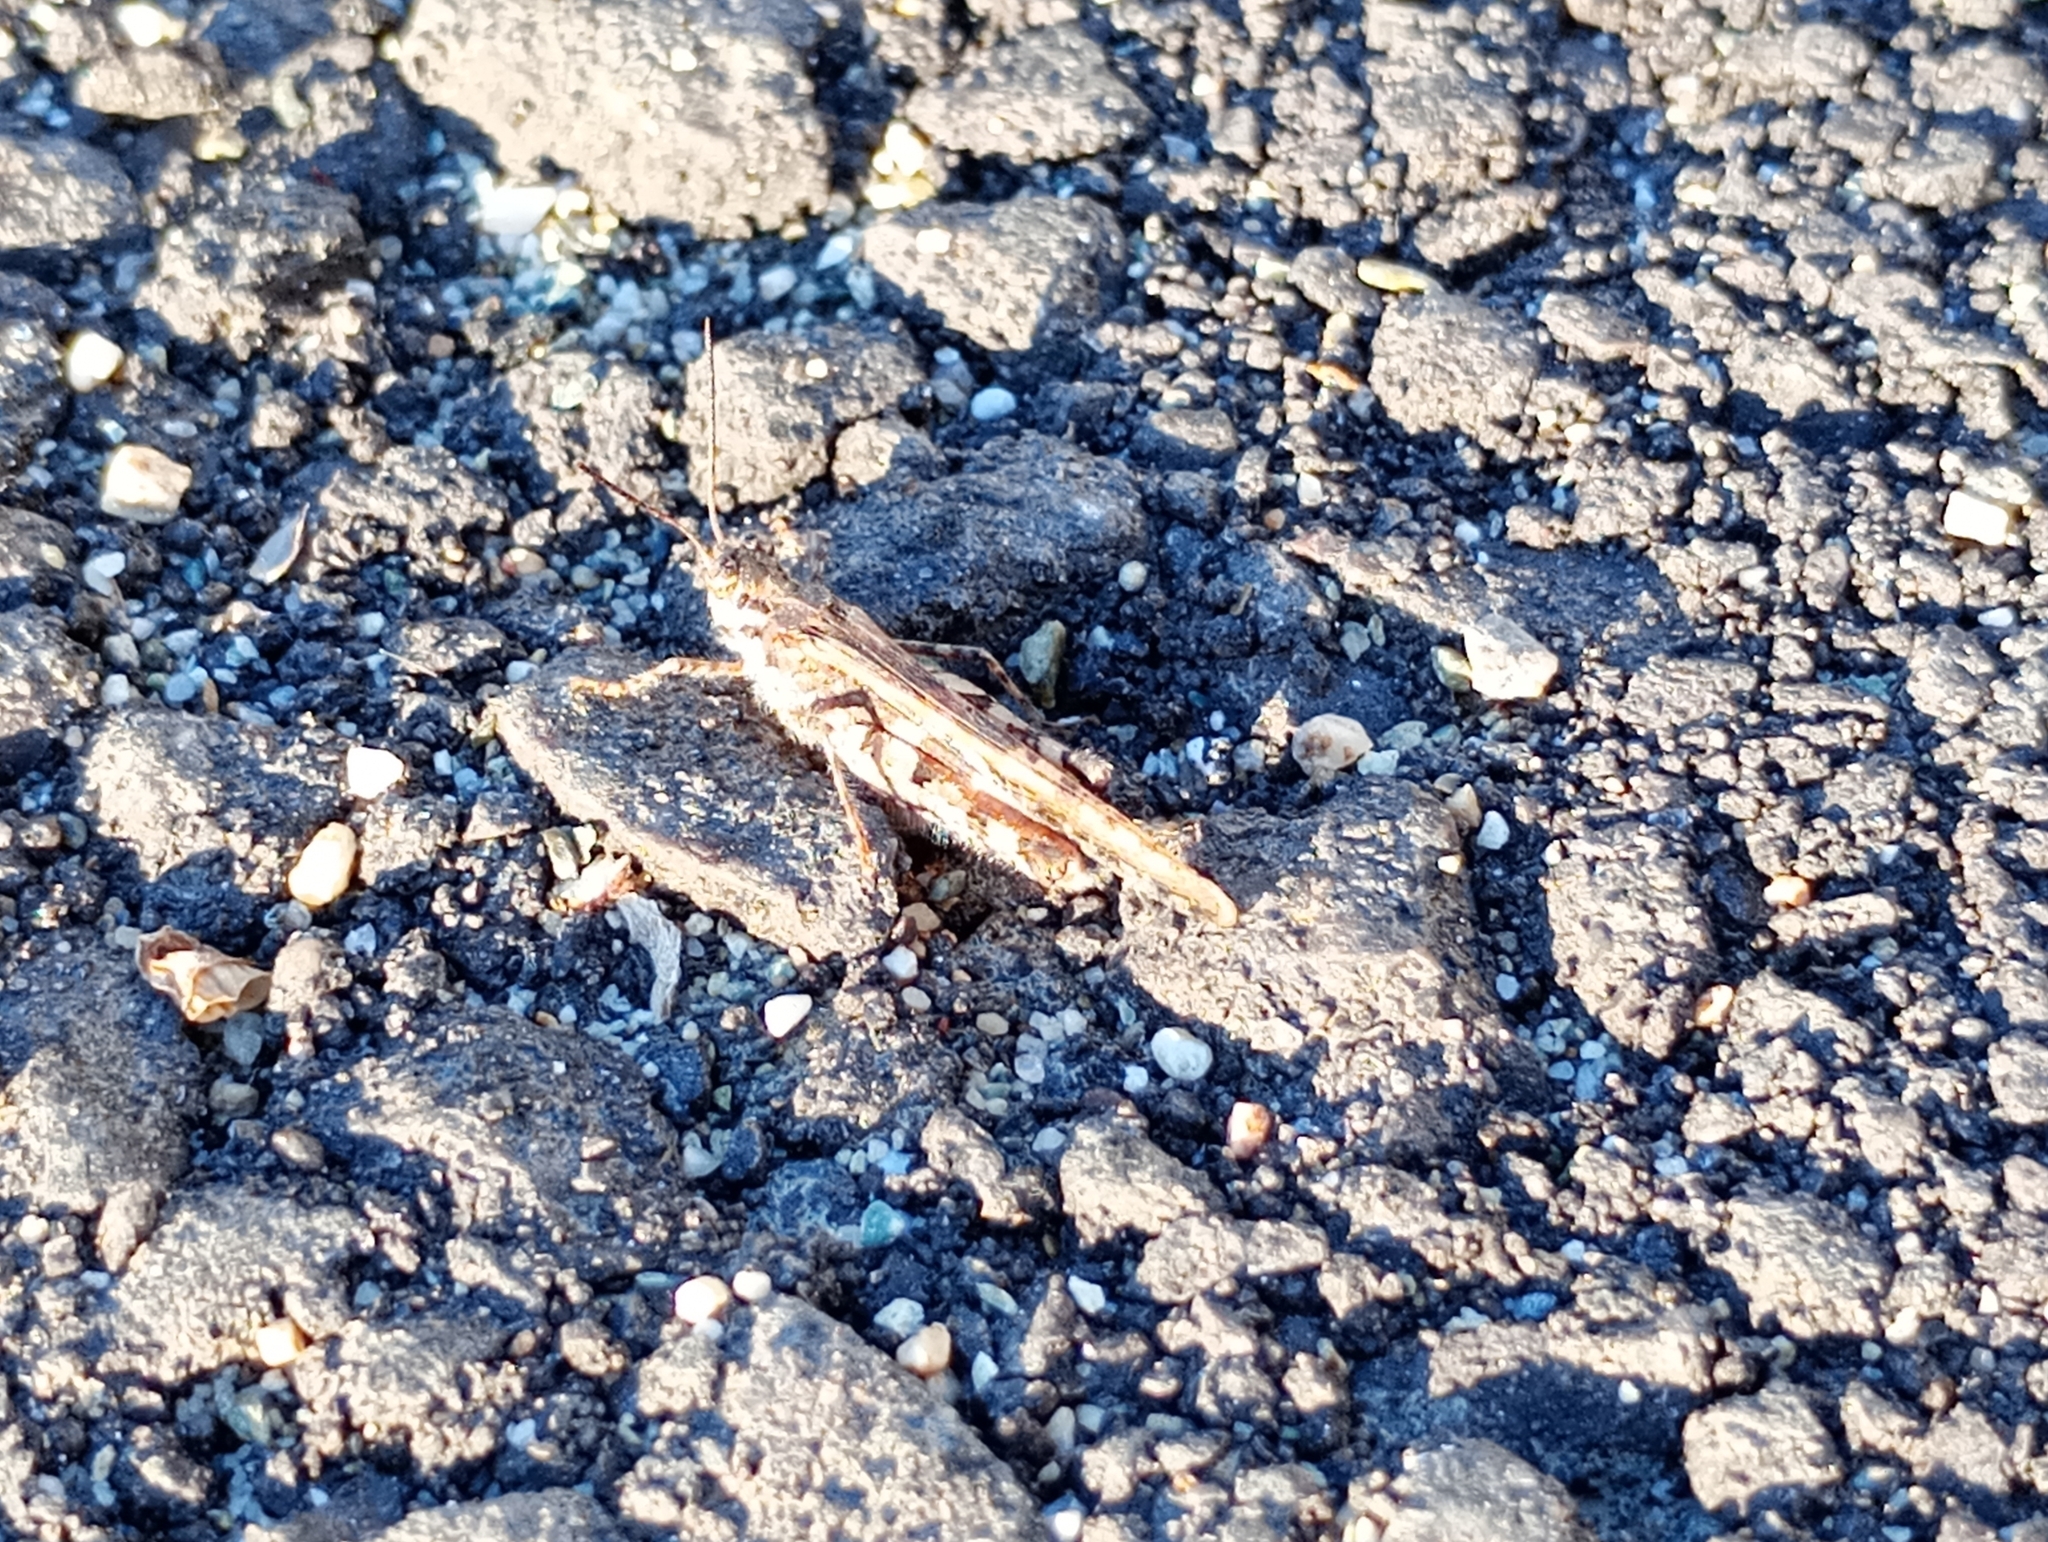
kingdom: Animalia
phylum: Arthropoda
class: Insecta
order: Orthoptera
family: Acrididae
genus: Acrotylus
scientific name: Acrotylus patruelis
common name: Slender burrowing grasshopper
